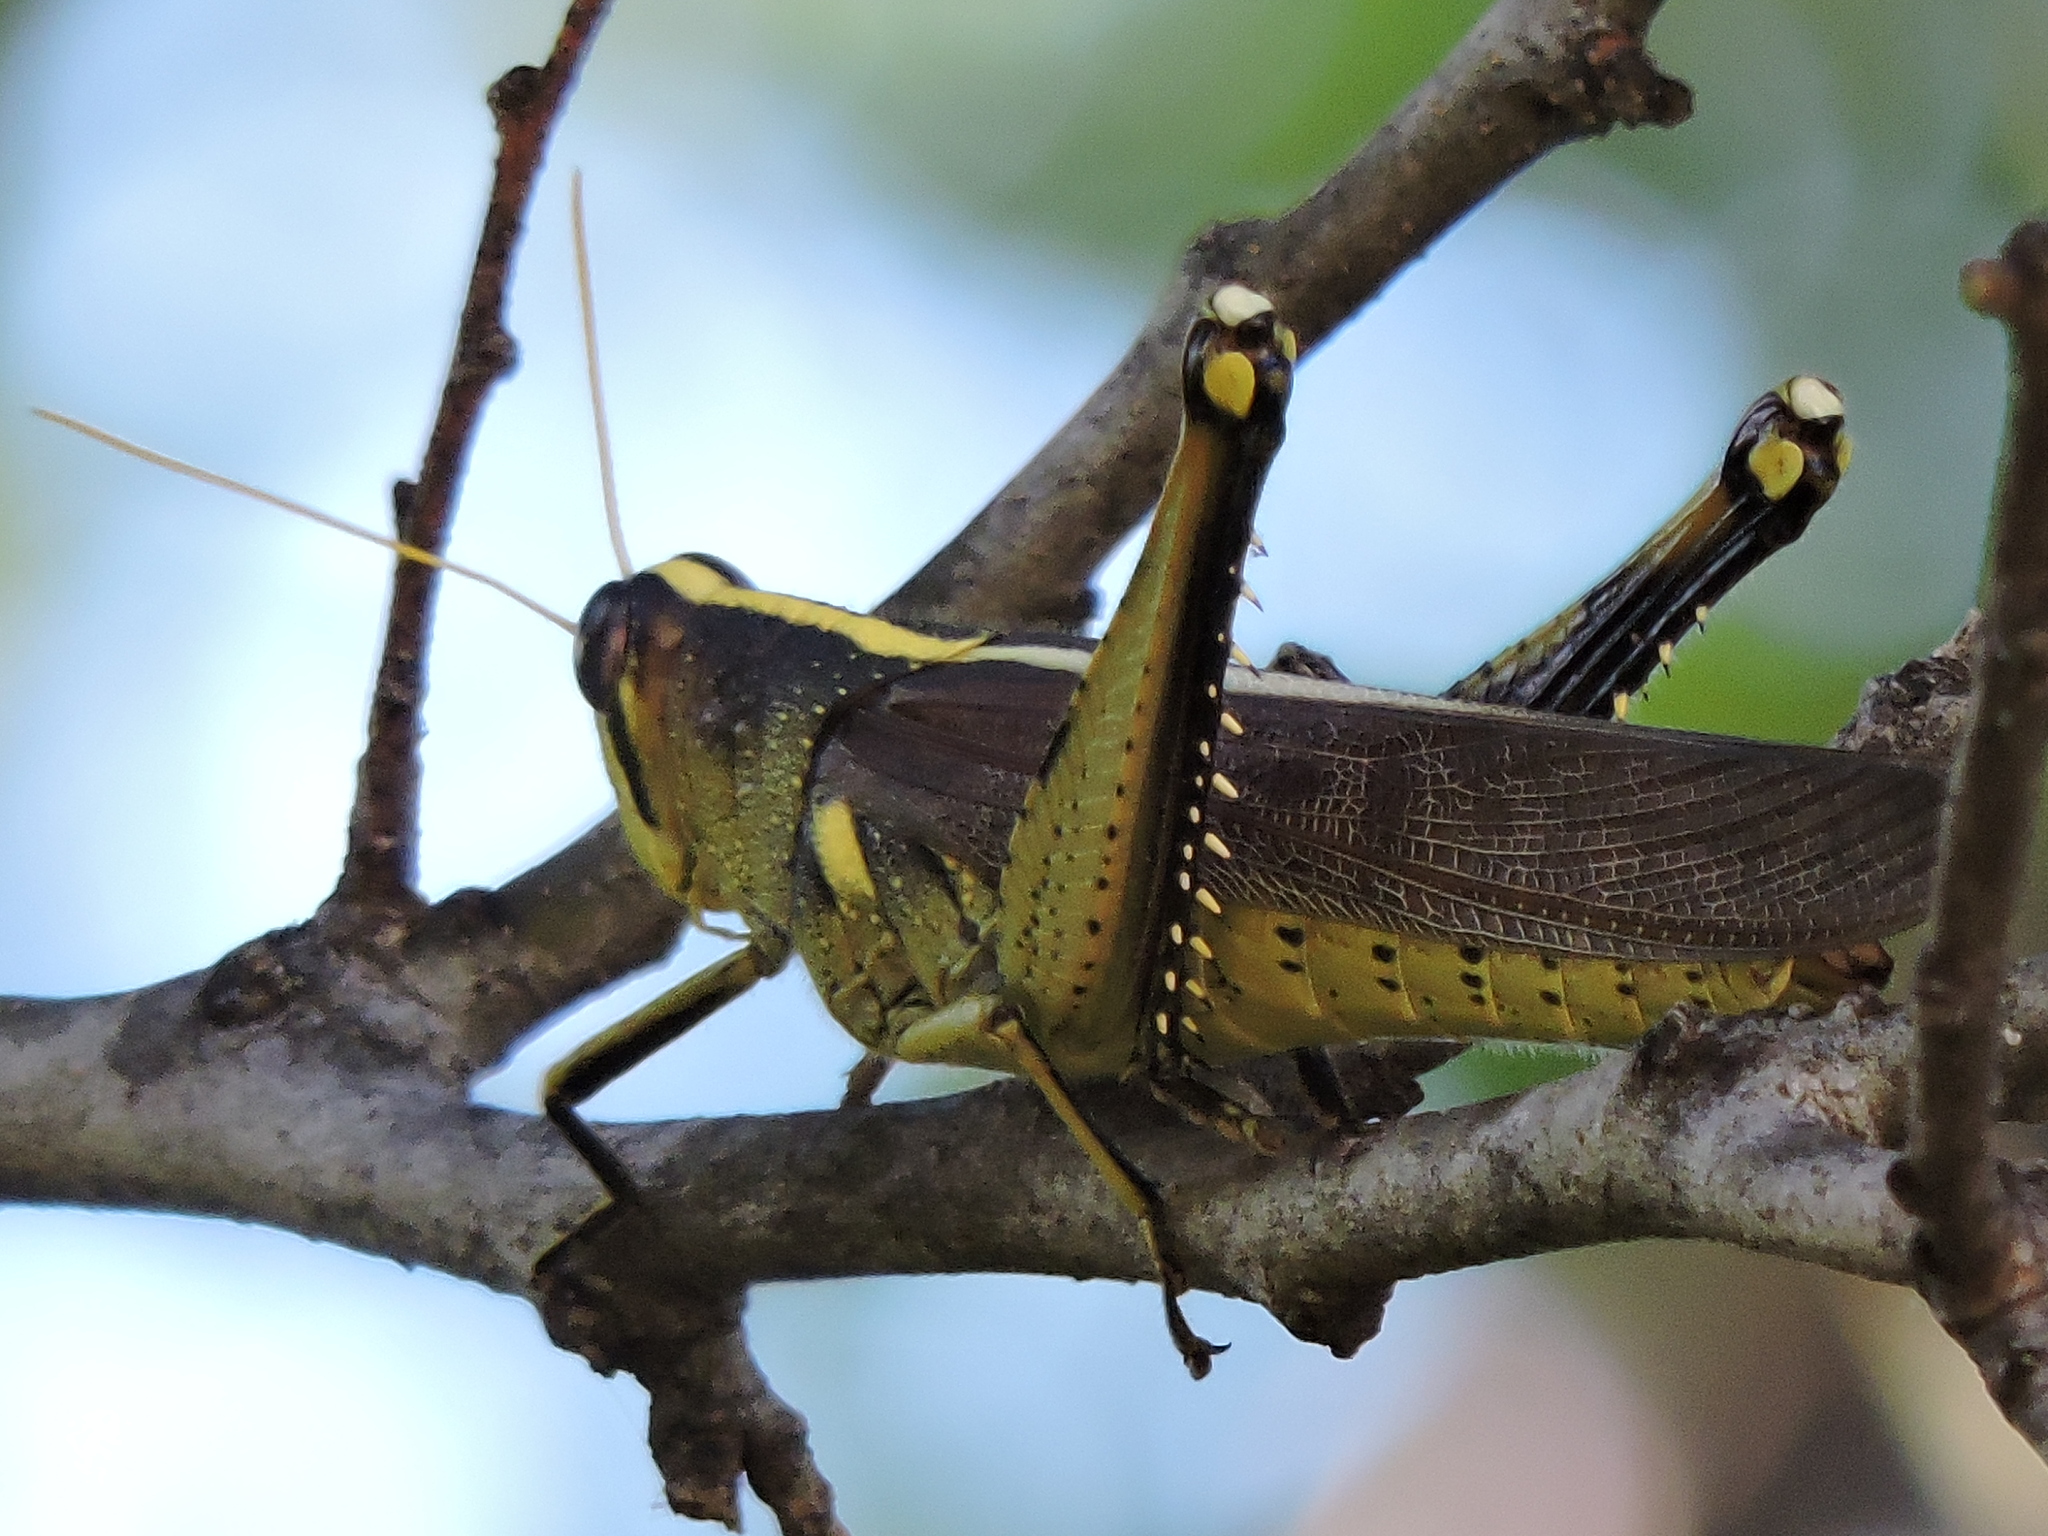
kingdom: Animalia
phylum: Arthropoda
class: Insecta
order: Orthoptera
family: Acrididae
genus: Schistocerca
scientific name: Schistocerca obscura
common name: Obscure bird grasshopper
